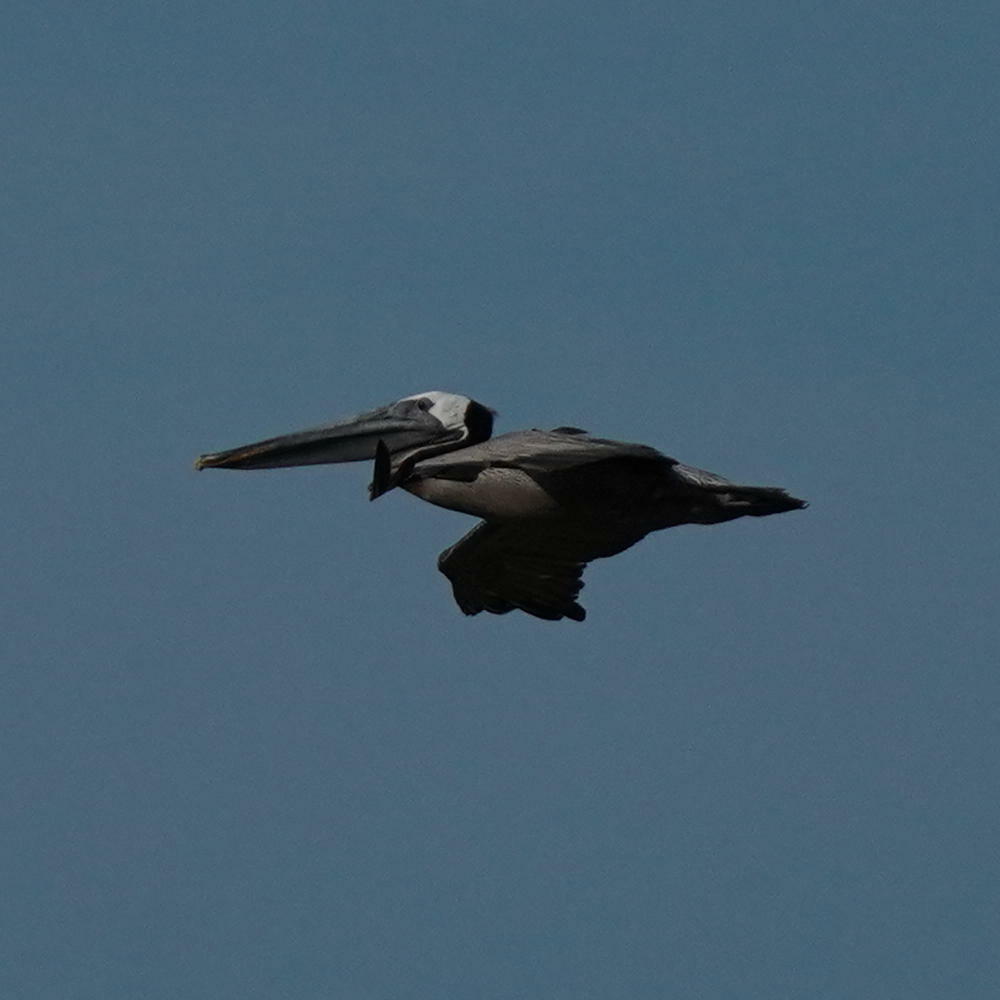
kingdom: Animalia
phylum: Chordata
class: Aves
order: Pelecaniformes
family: Pelecanidae
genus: Pelecanus
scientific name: Pelecanus occidentalis
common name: Brown pelican
